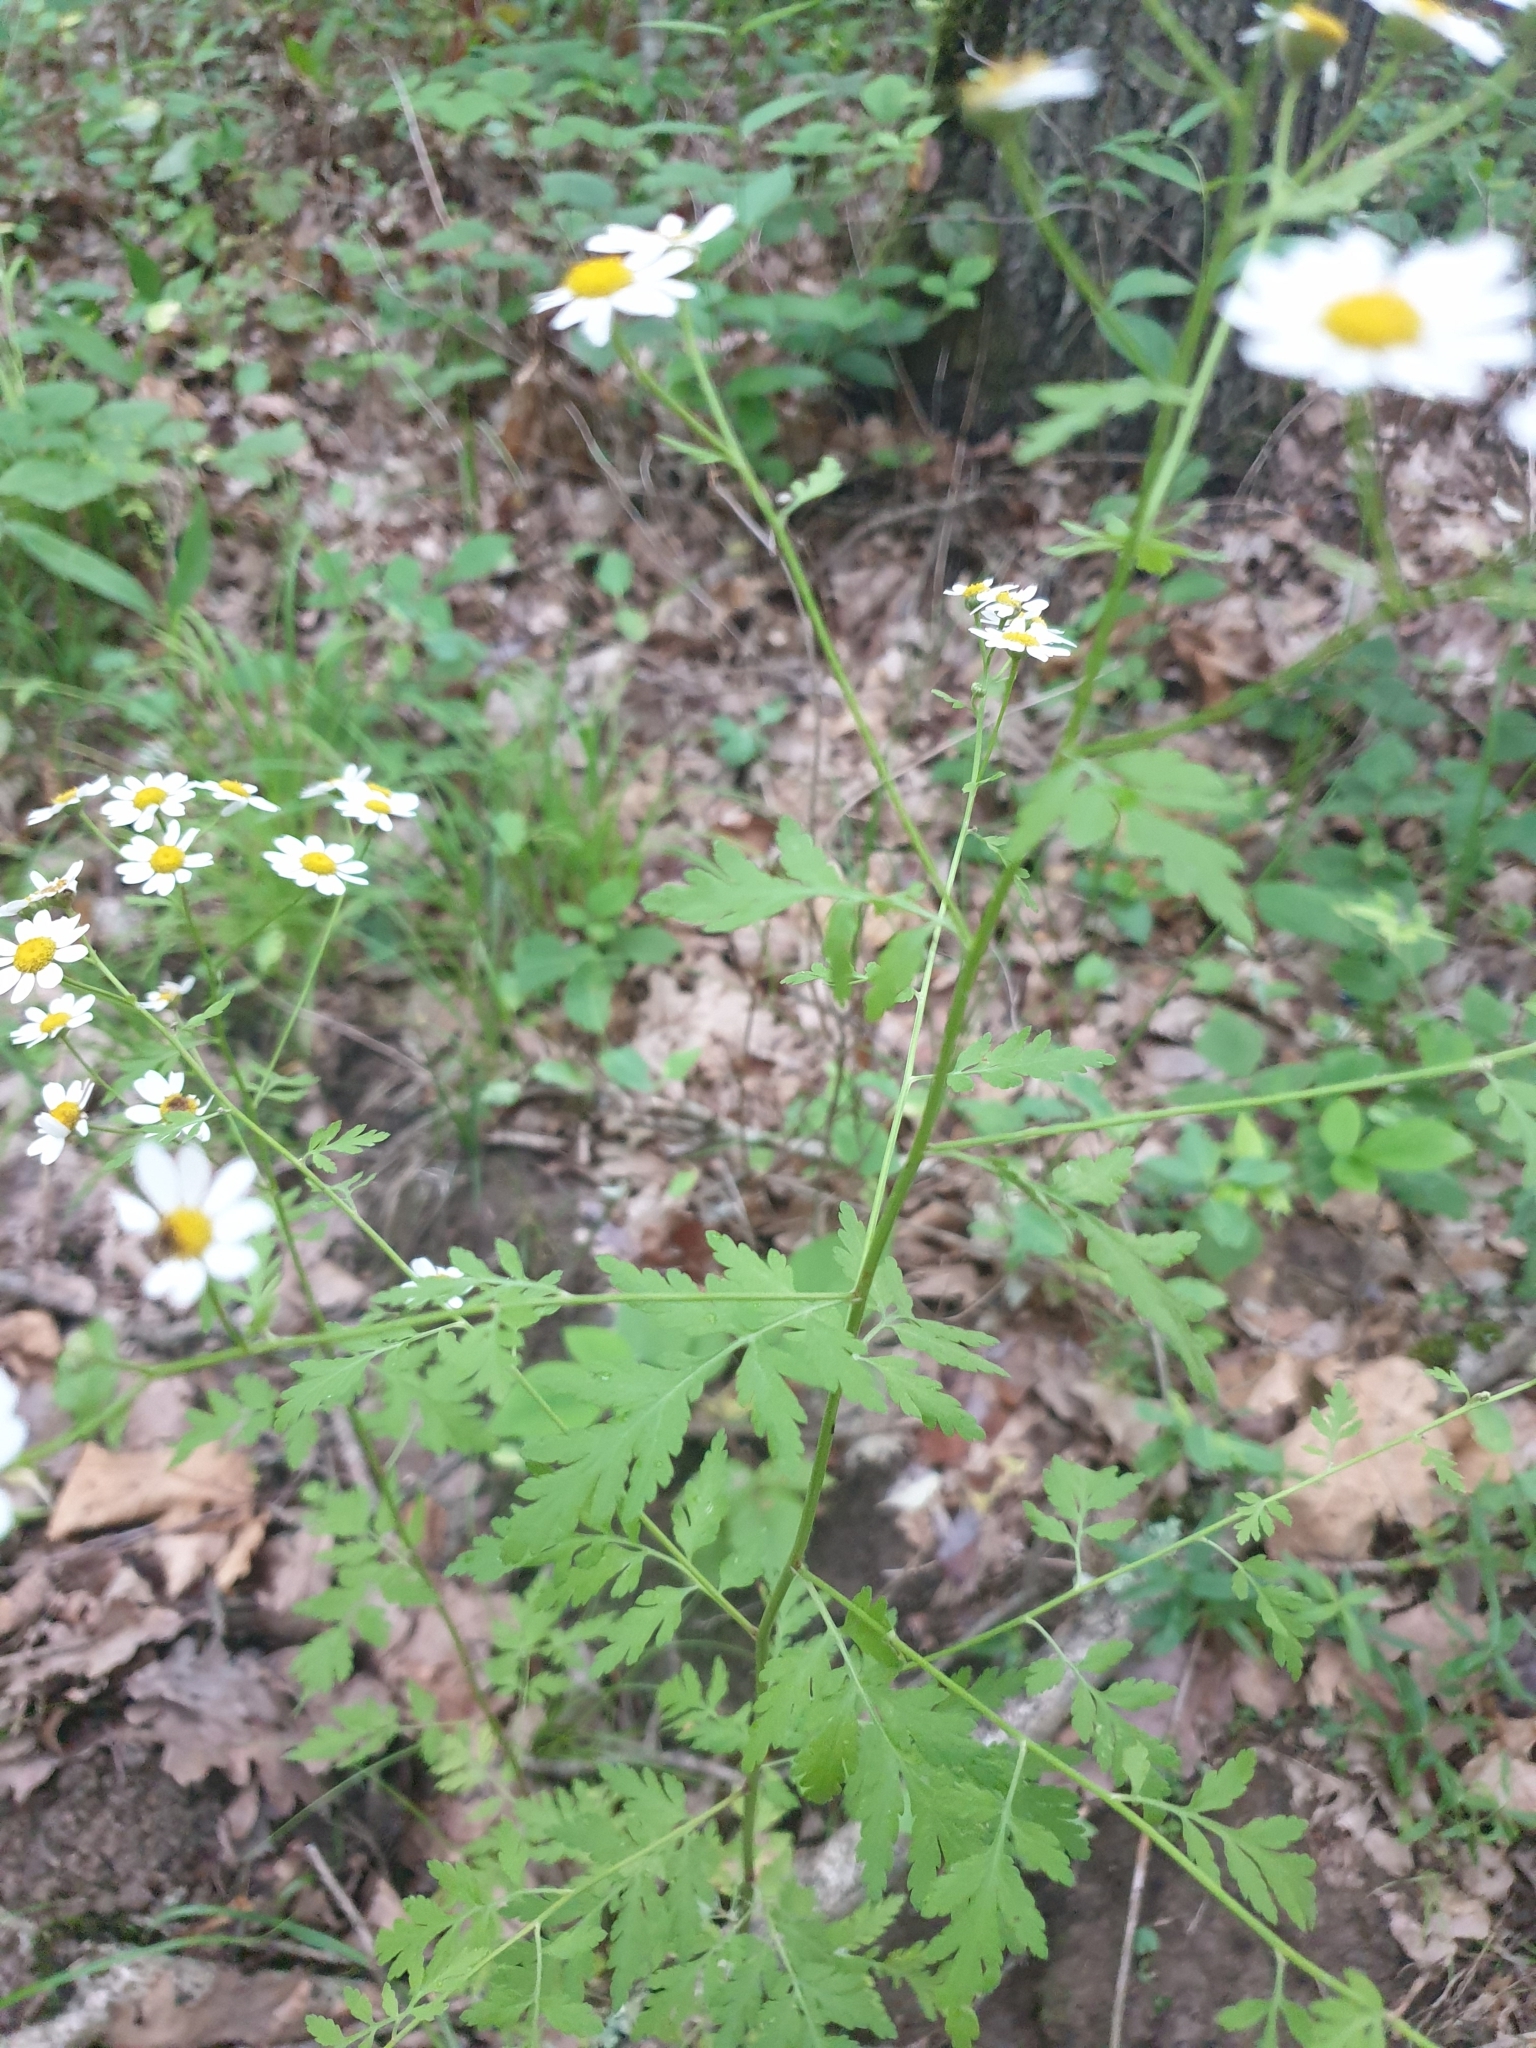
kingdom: Plantae
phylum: Tracheophyta
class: Magnoliopsida
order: Asterales
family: Asteraceae
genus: Tanacetum
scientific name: Tanacetum poteriifolium
